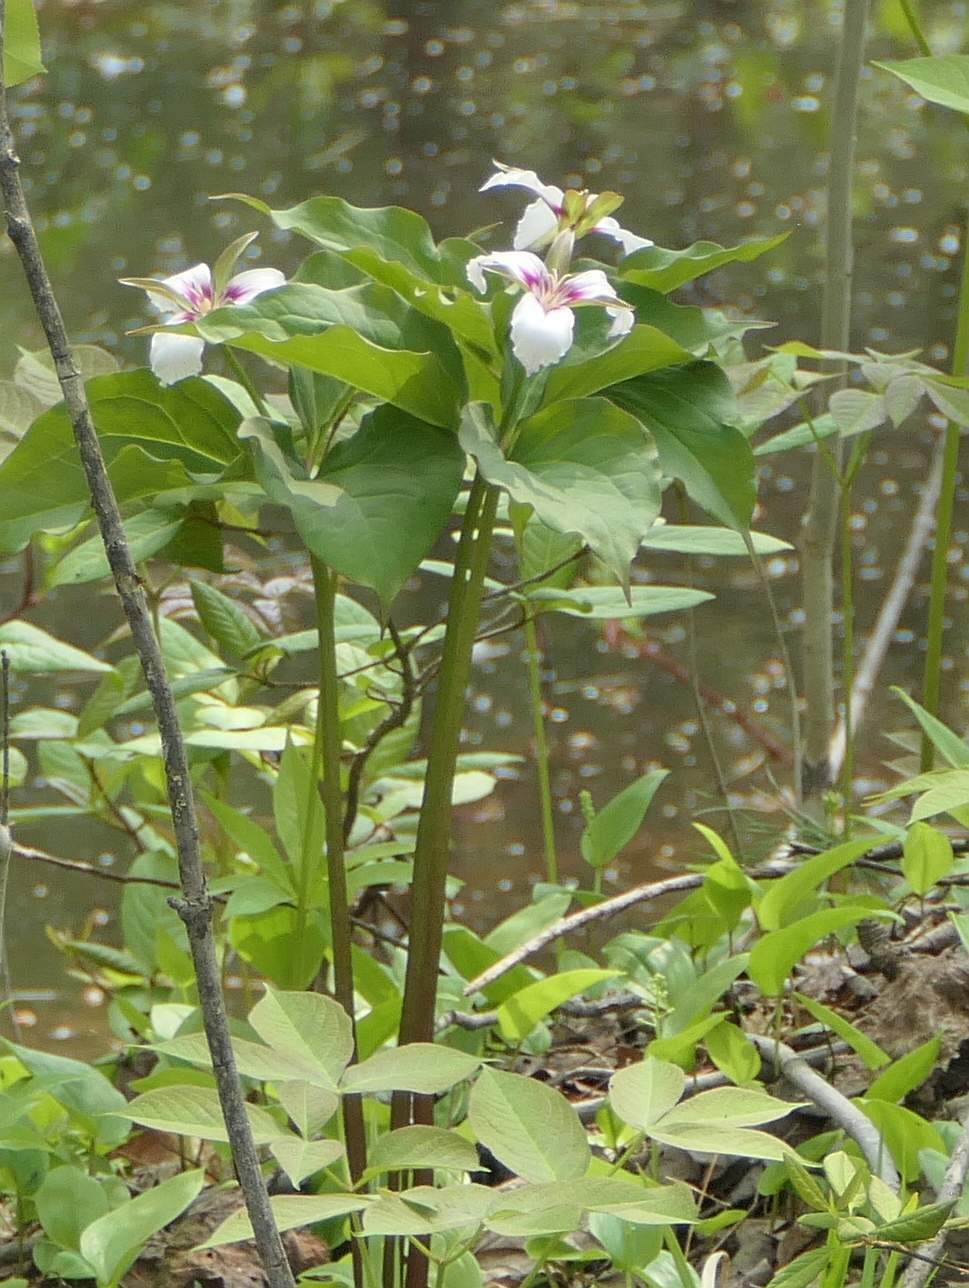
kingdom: Plantae
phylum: Tracheophyta
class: Liliopsida
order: Liliales
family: Melanthiaceae
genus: Trillium
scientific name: Trillium undulatum
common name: Paint trillium
